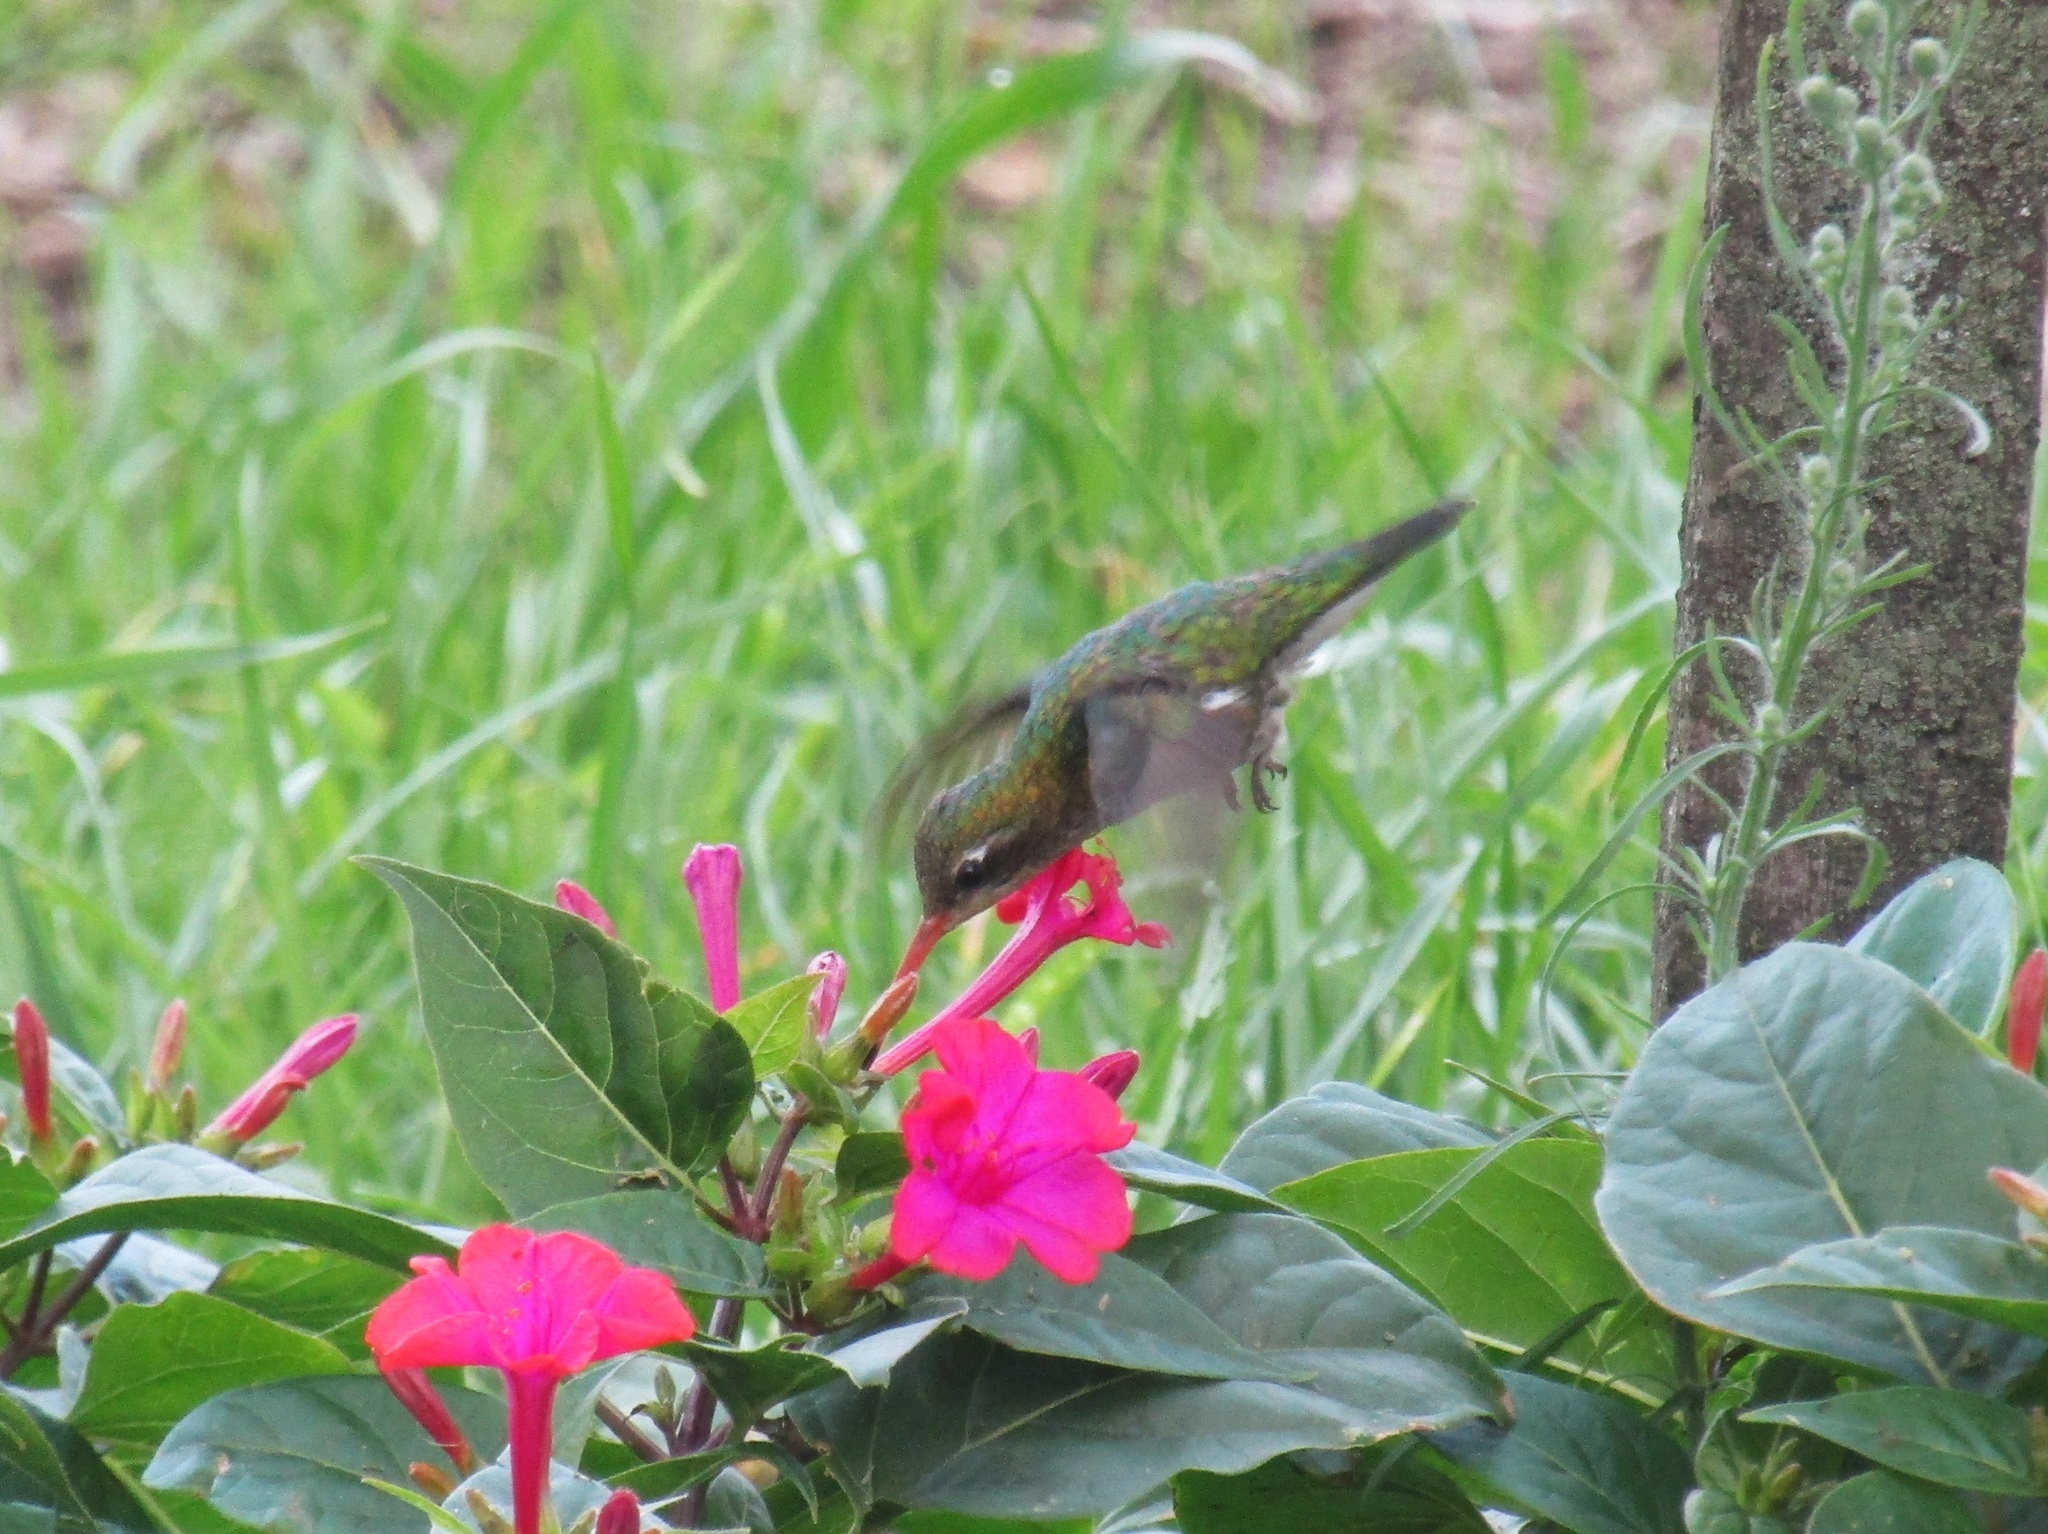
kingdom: Animalia
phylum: Chordata
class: Aves
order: Apodiformes
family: Trochilidae
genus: Chlorostilbon
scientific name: Chlorostilbon lucidus
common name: Glittering-bellied emerald
